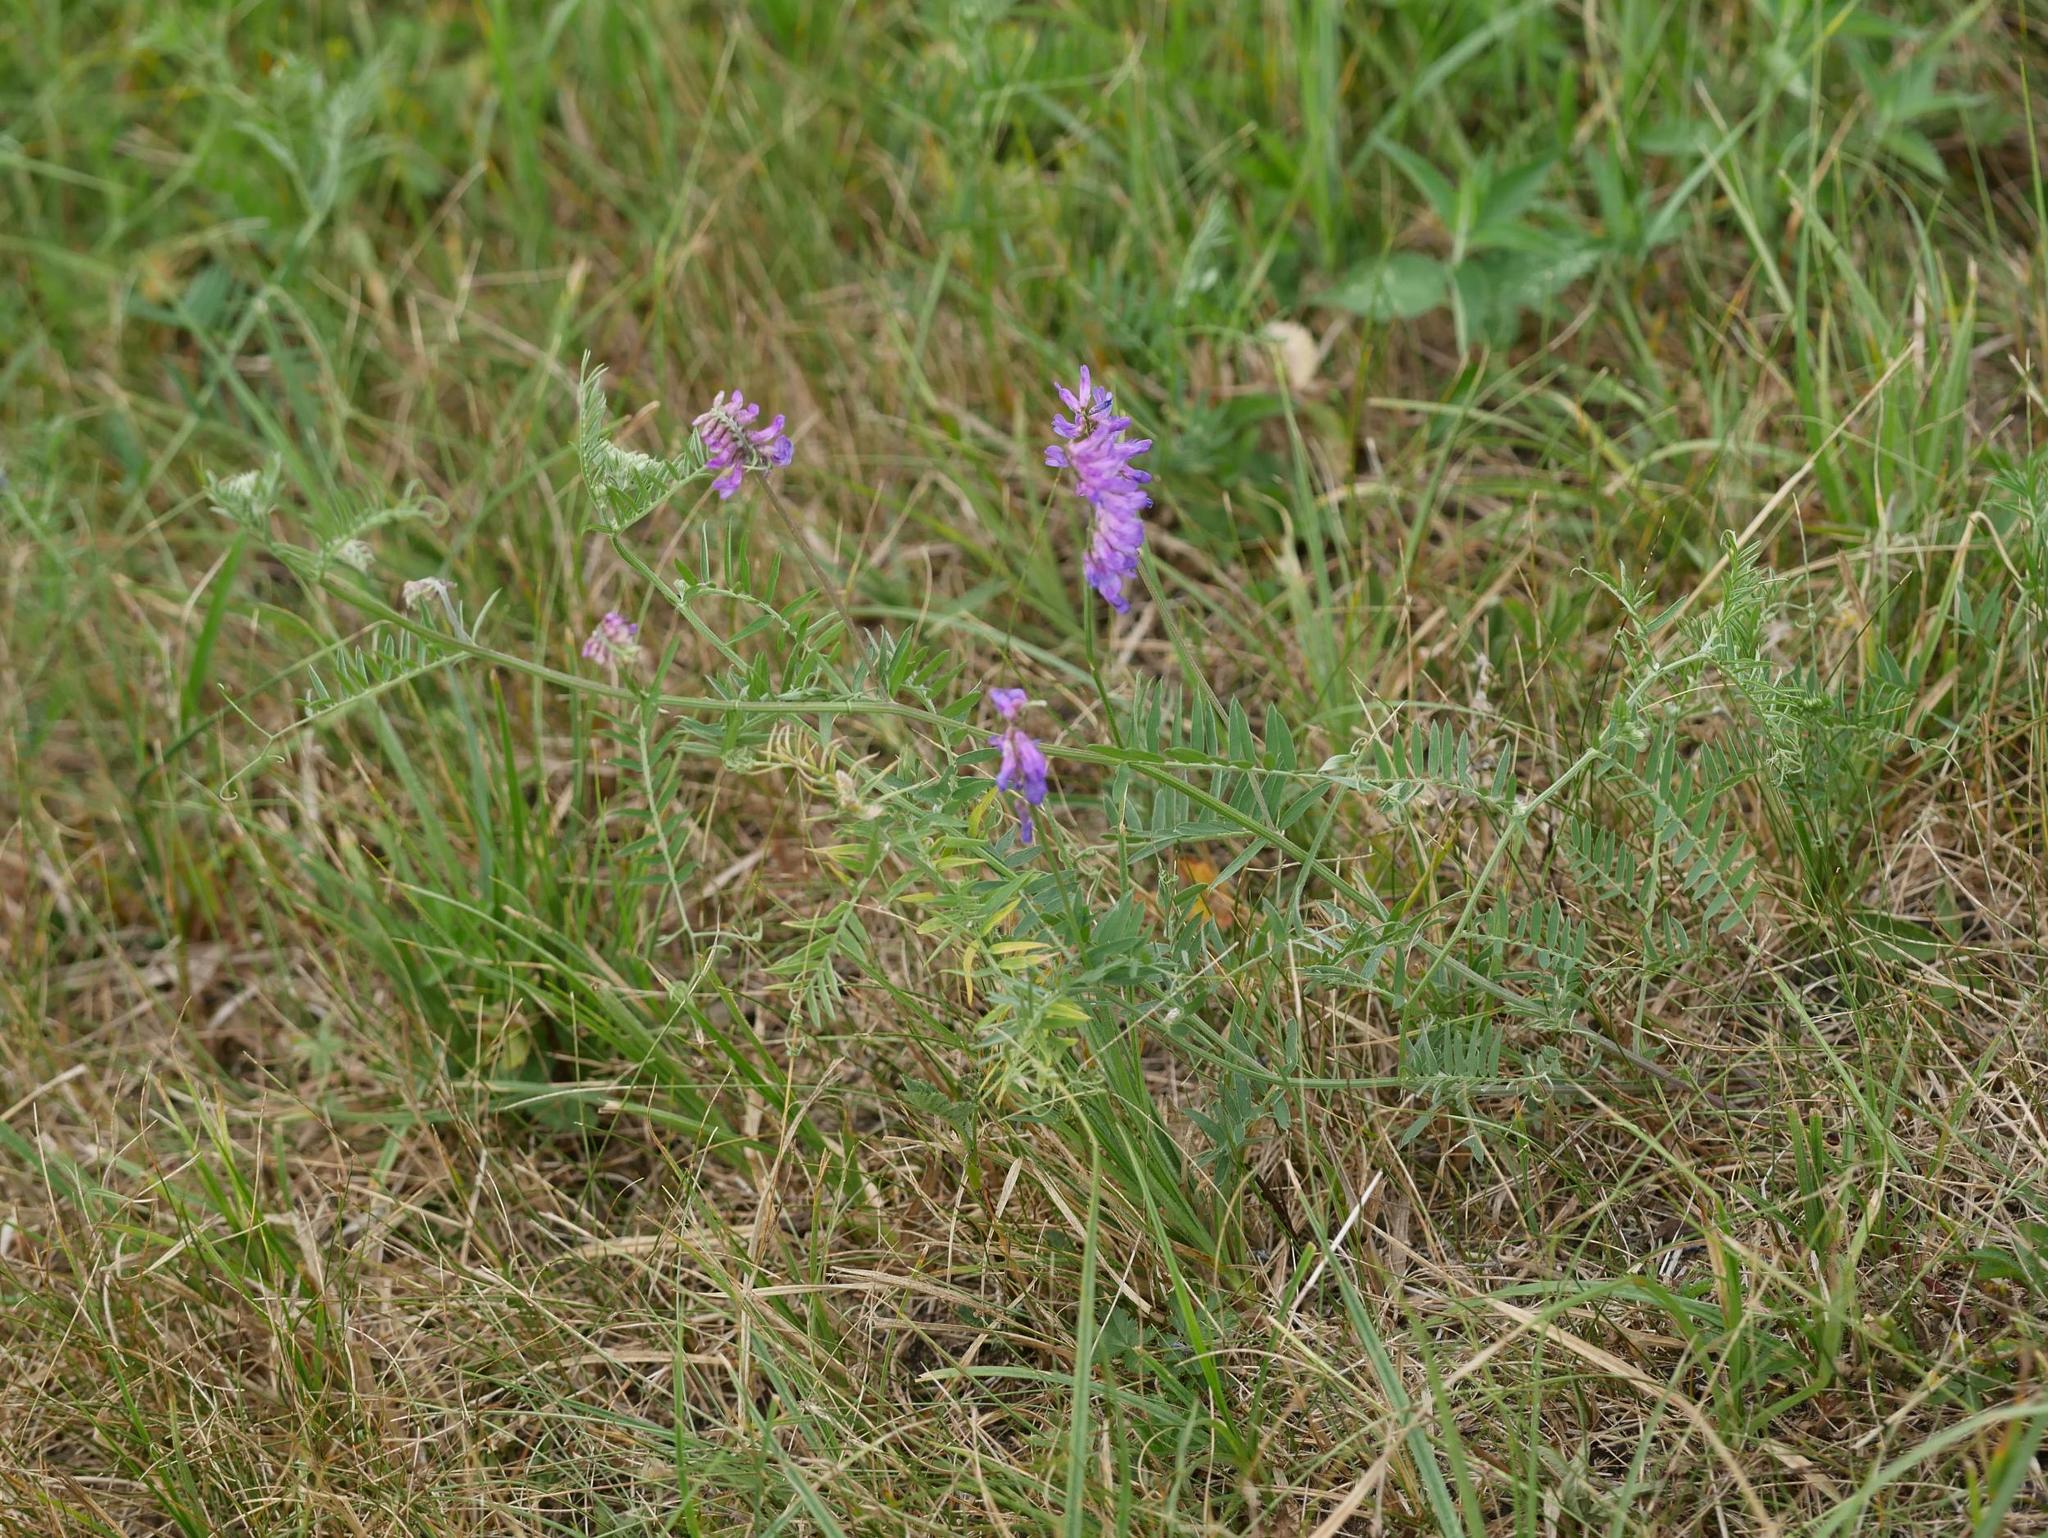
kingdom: Plantae
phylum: Tracheophyta
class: Magnoliopsida
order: Fabales
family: Fabaceae
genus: Vicia
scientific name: Vicia cracca
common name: Bird vetch
